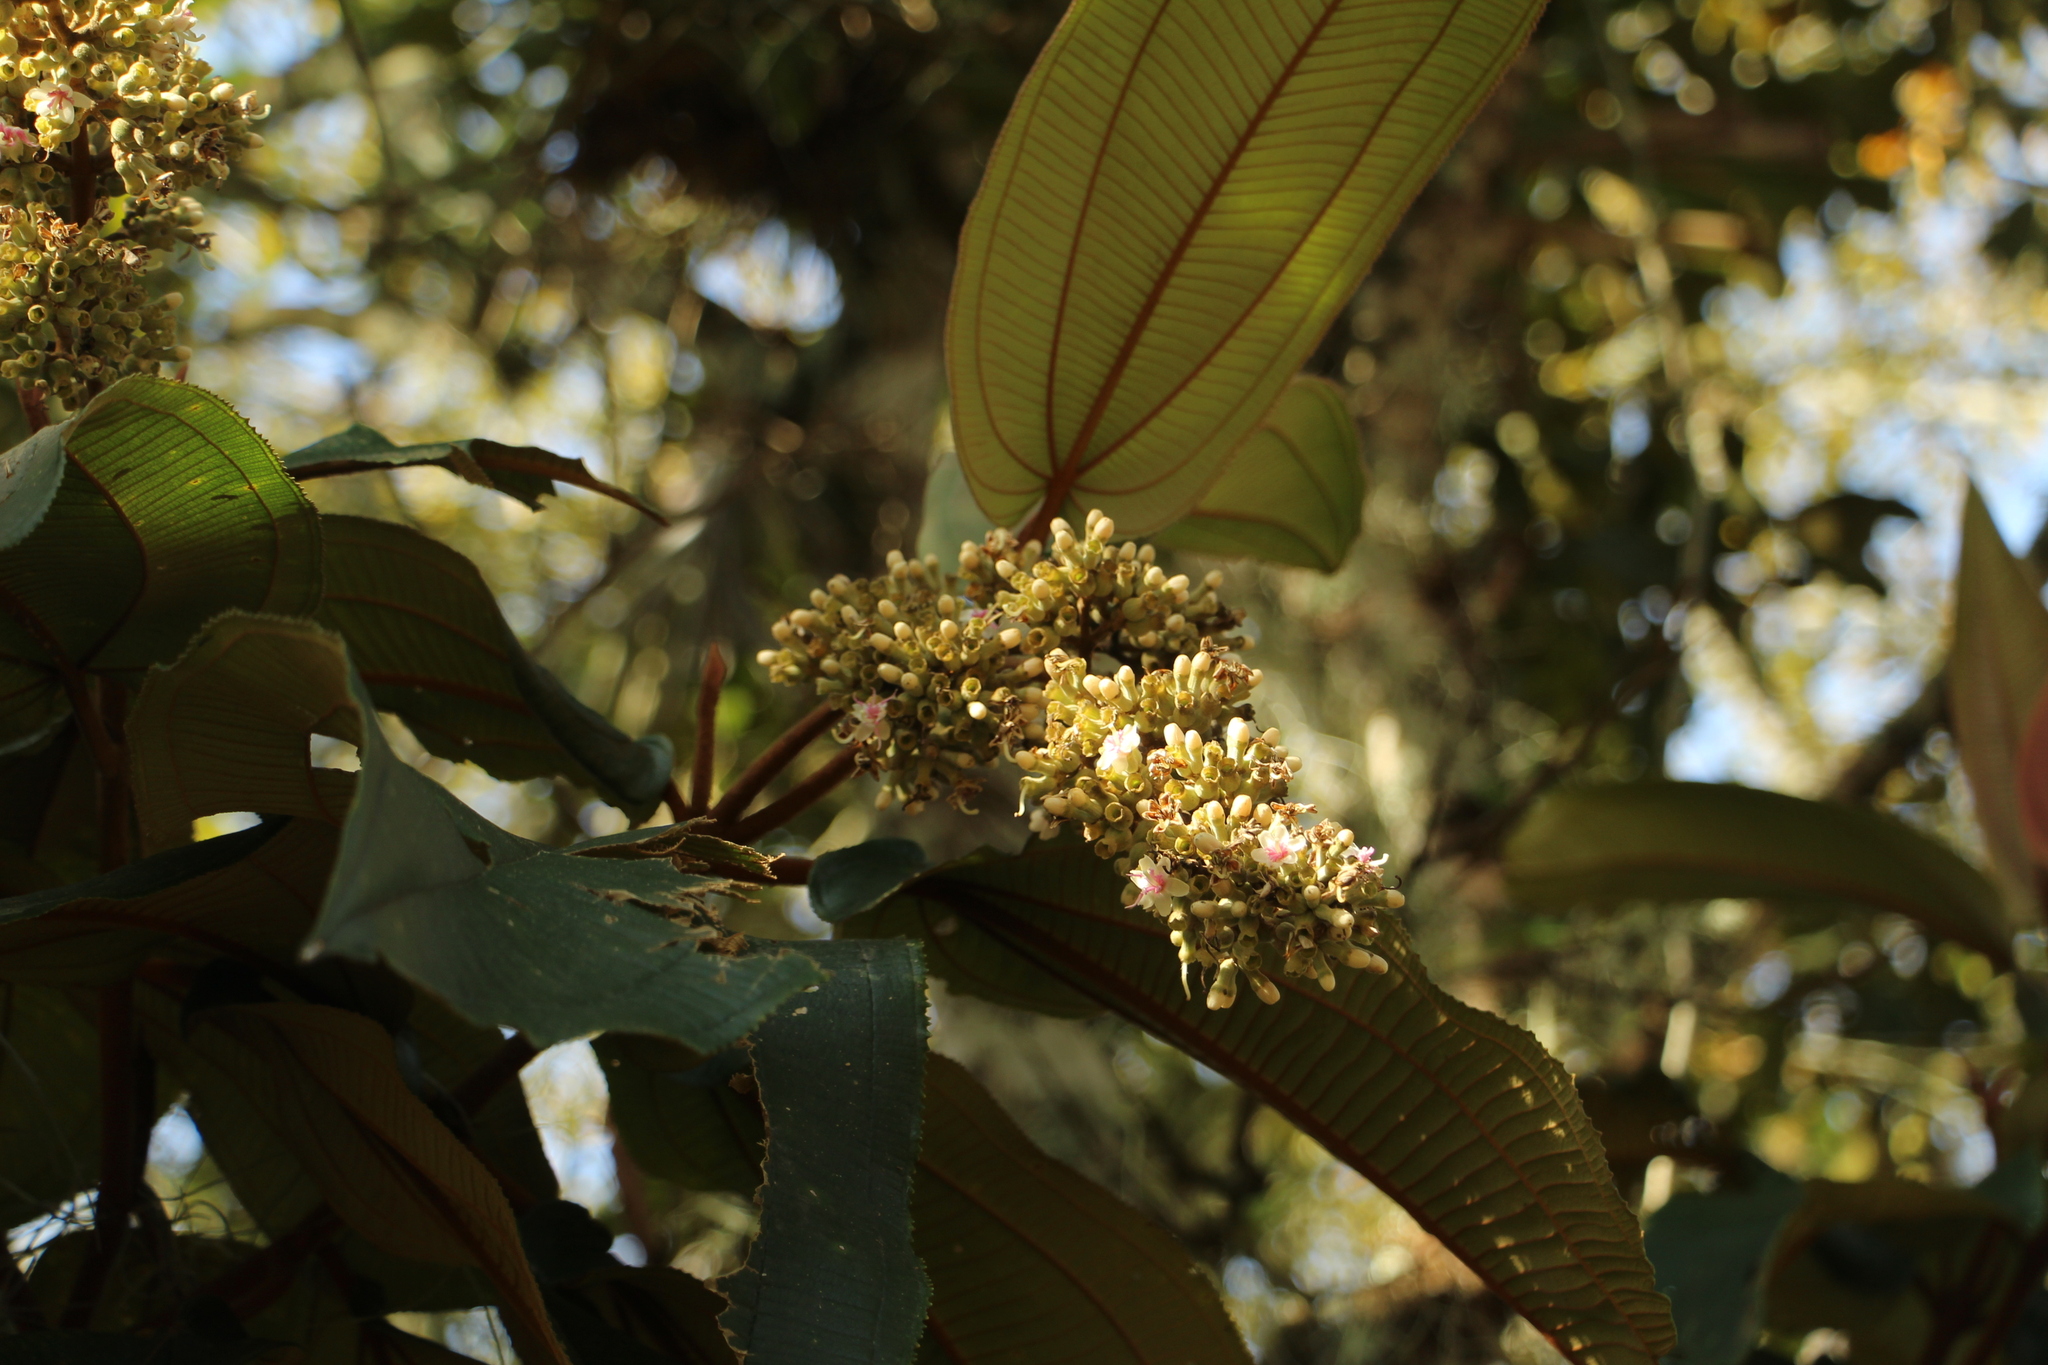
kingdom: Plantae
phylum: Tracheophyta
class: Magnoliopsida
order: Myrtales
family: Melastomataceae
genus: Miconia
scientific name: Miconia bubalina
